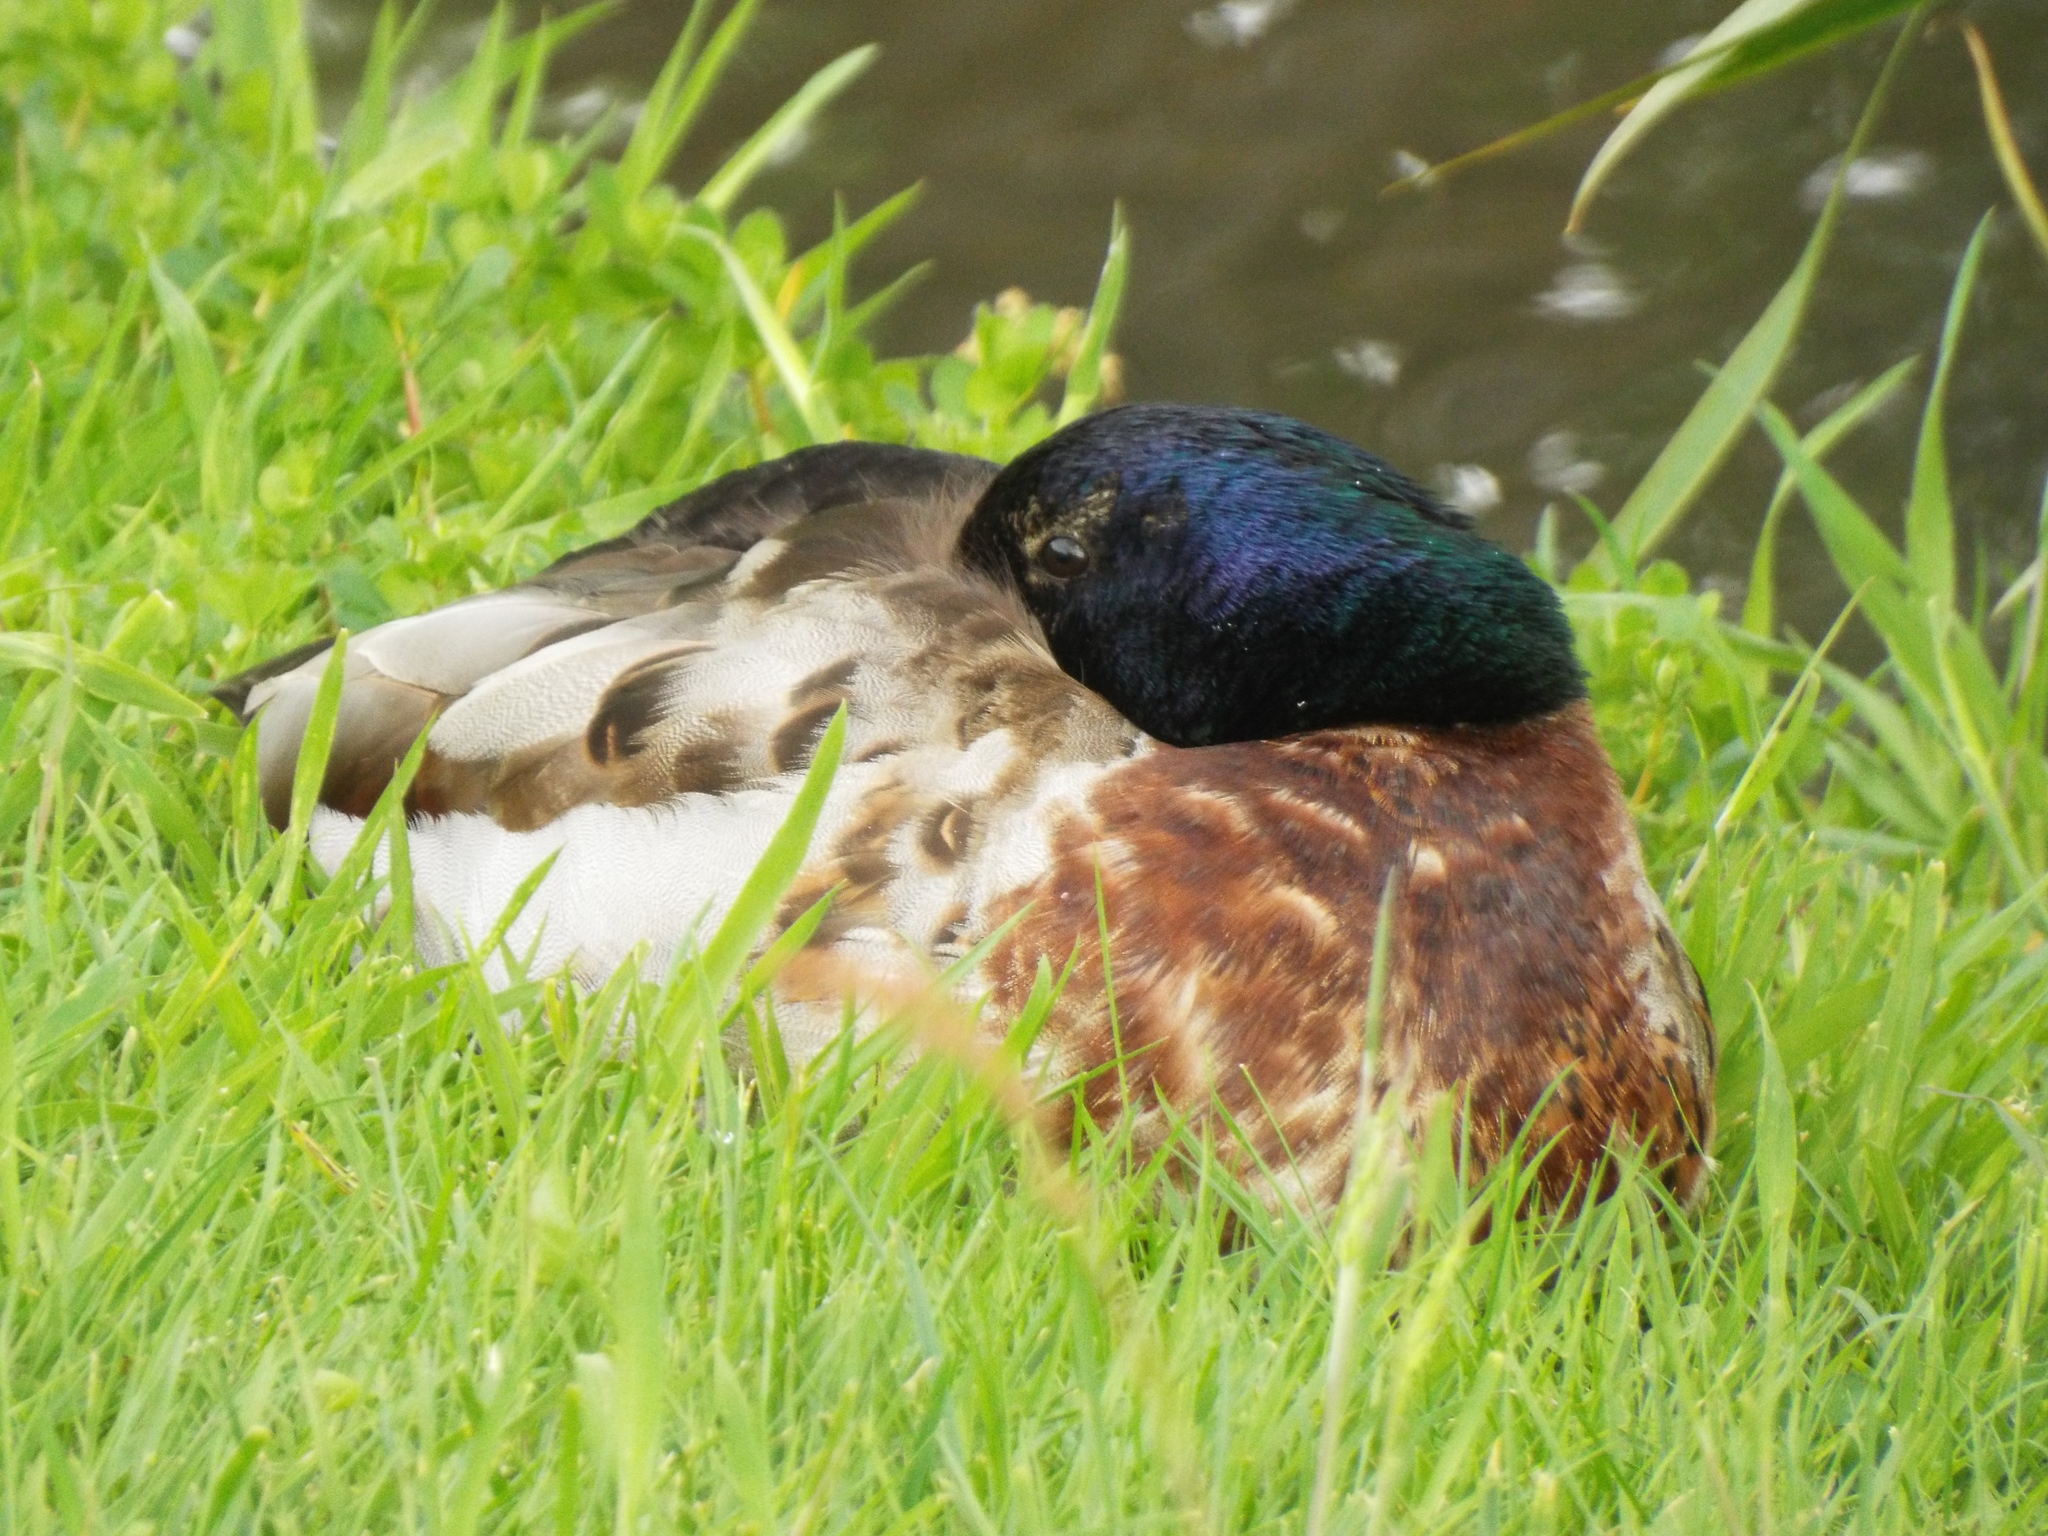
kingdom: Animalia
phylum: Chordata
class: Aves
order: Anseriformes
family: Anatidae
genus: Anas
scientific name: Anas platyrhynchos
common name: Mallard
